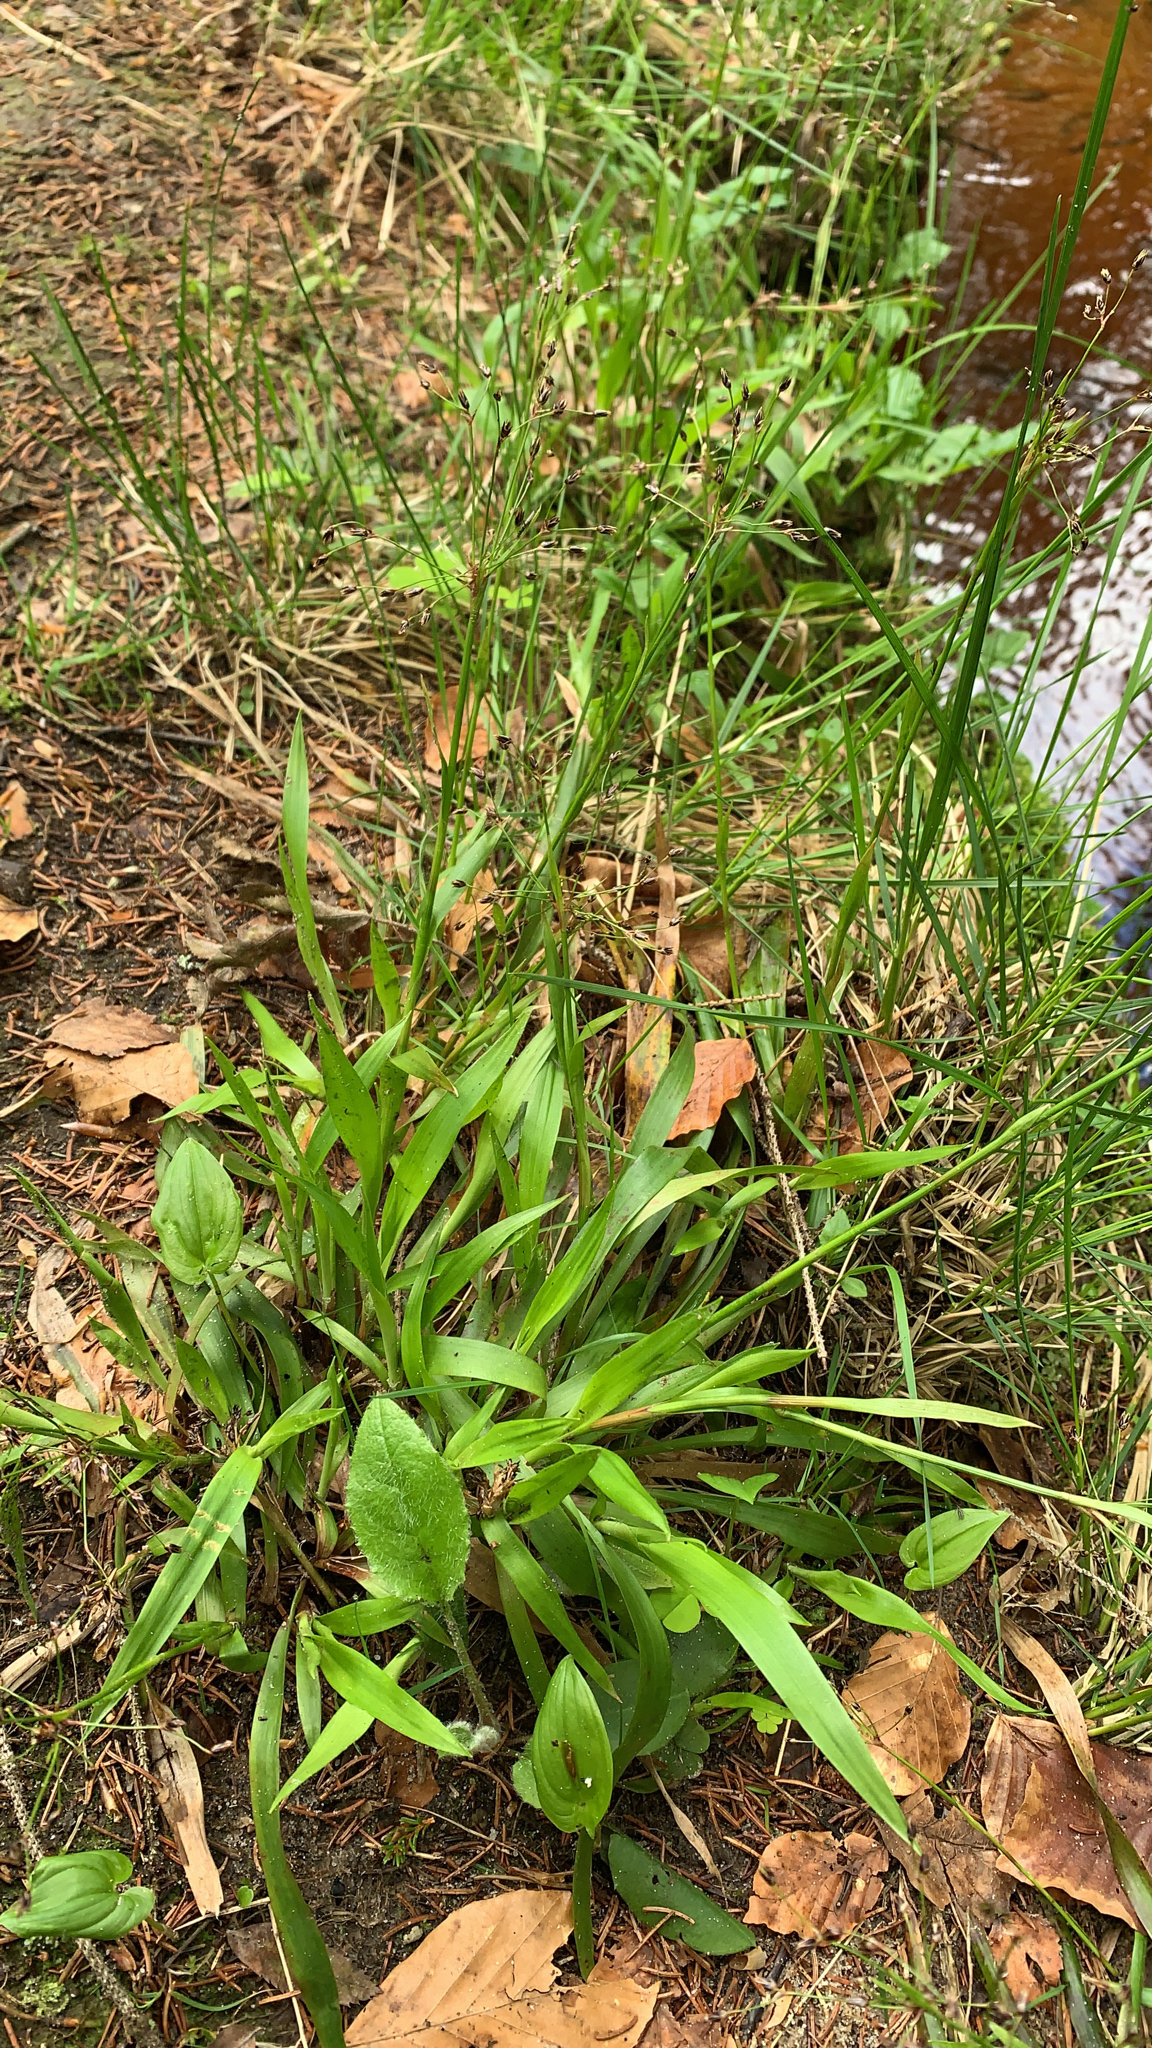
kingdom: Plantae
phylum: Tracheophyta
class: Liliopsida
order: Poales
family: Juncaceae
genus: Luzula
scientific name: Luzula pilosa
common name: Hairy wood-rush
